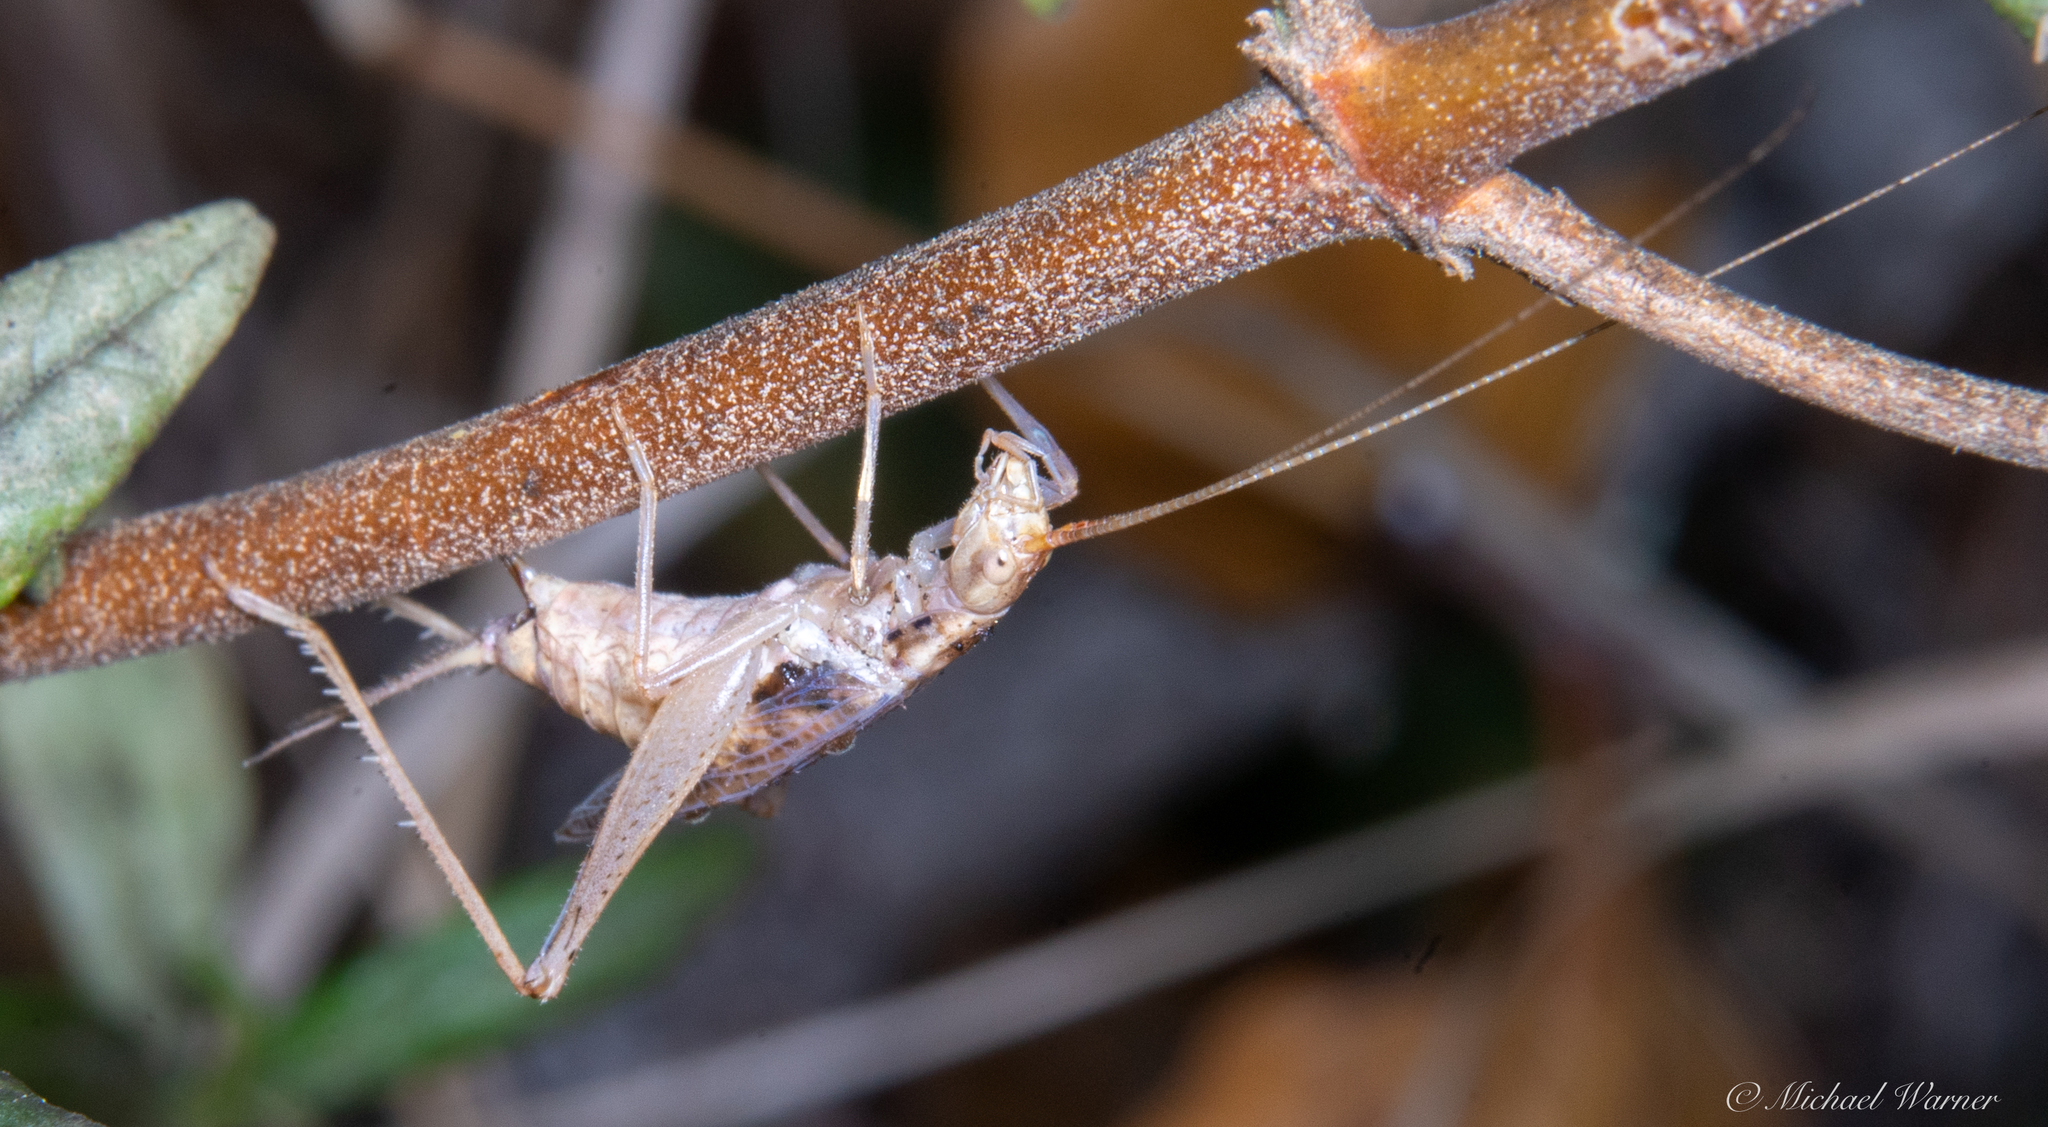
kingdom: Animalia
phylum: Arthropoda
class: Insecta
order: Orthoptera
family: Gryllidae
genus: Oecanthus
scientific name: Oecanthus californicus
